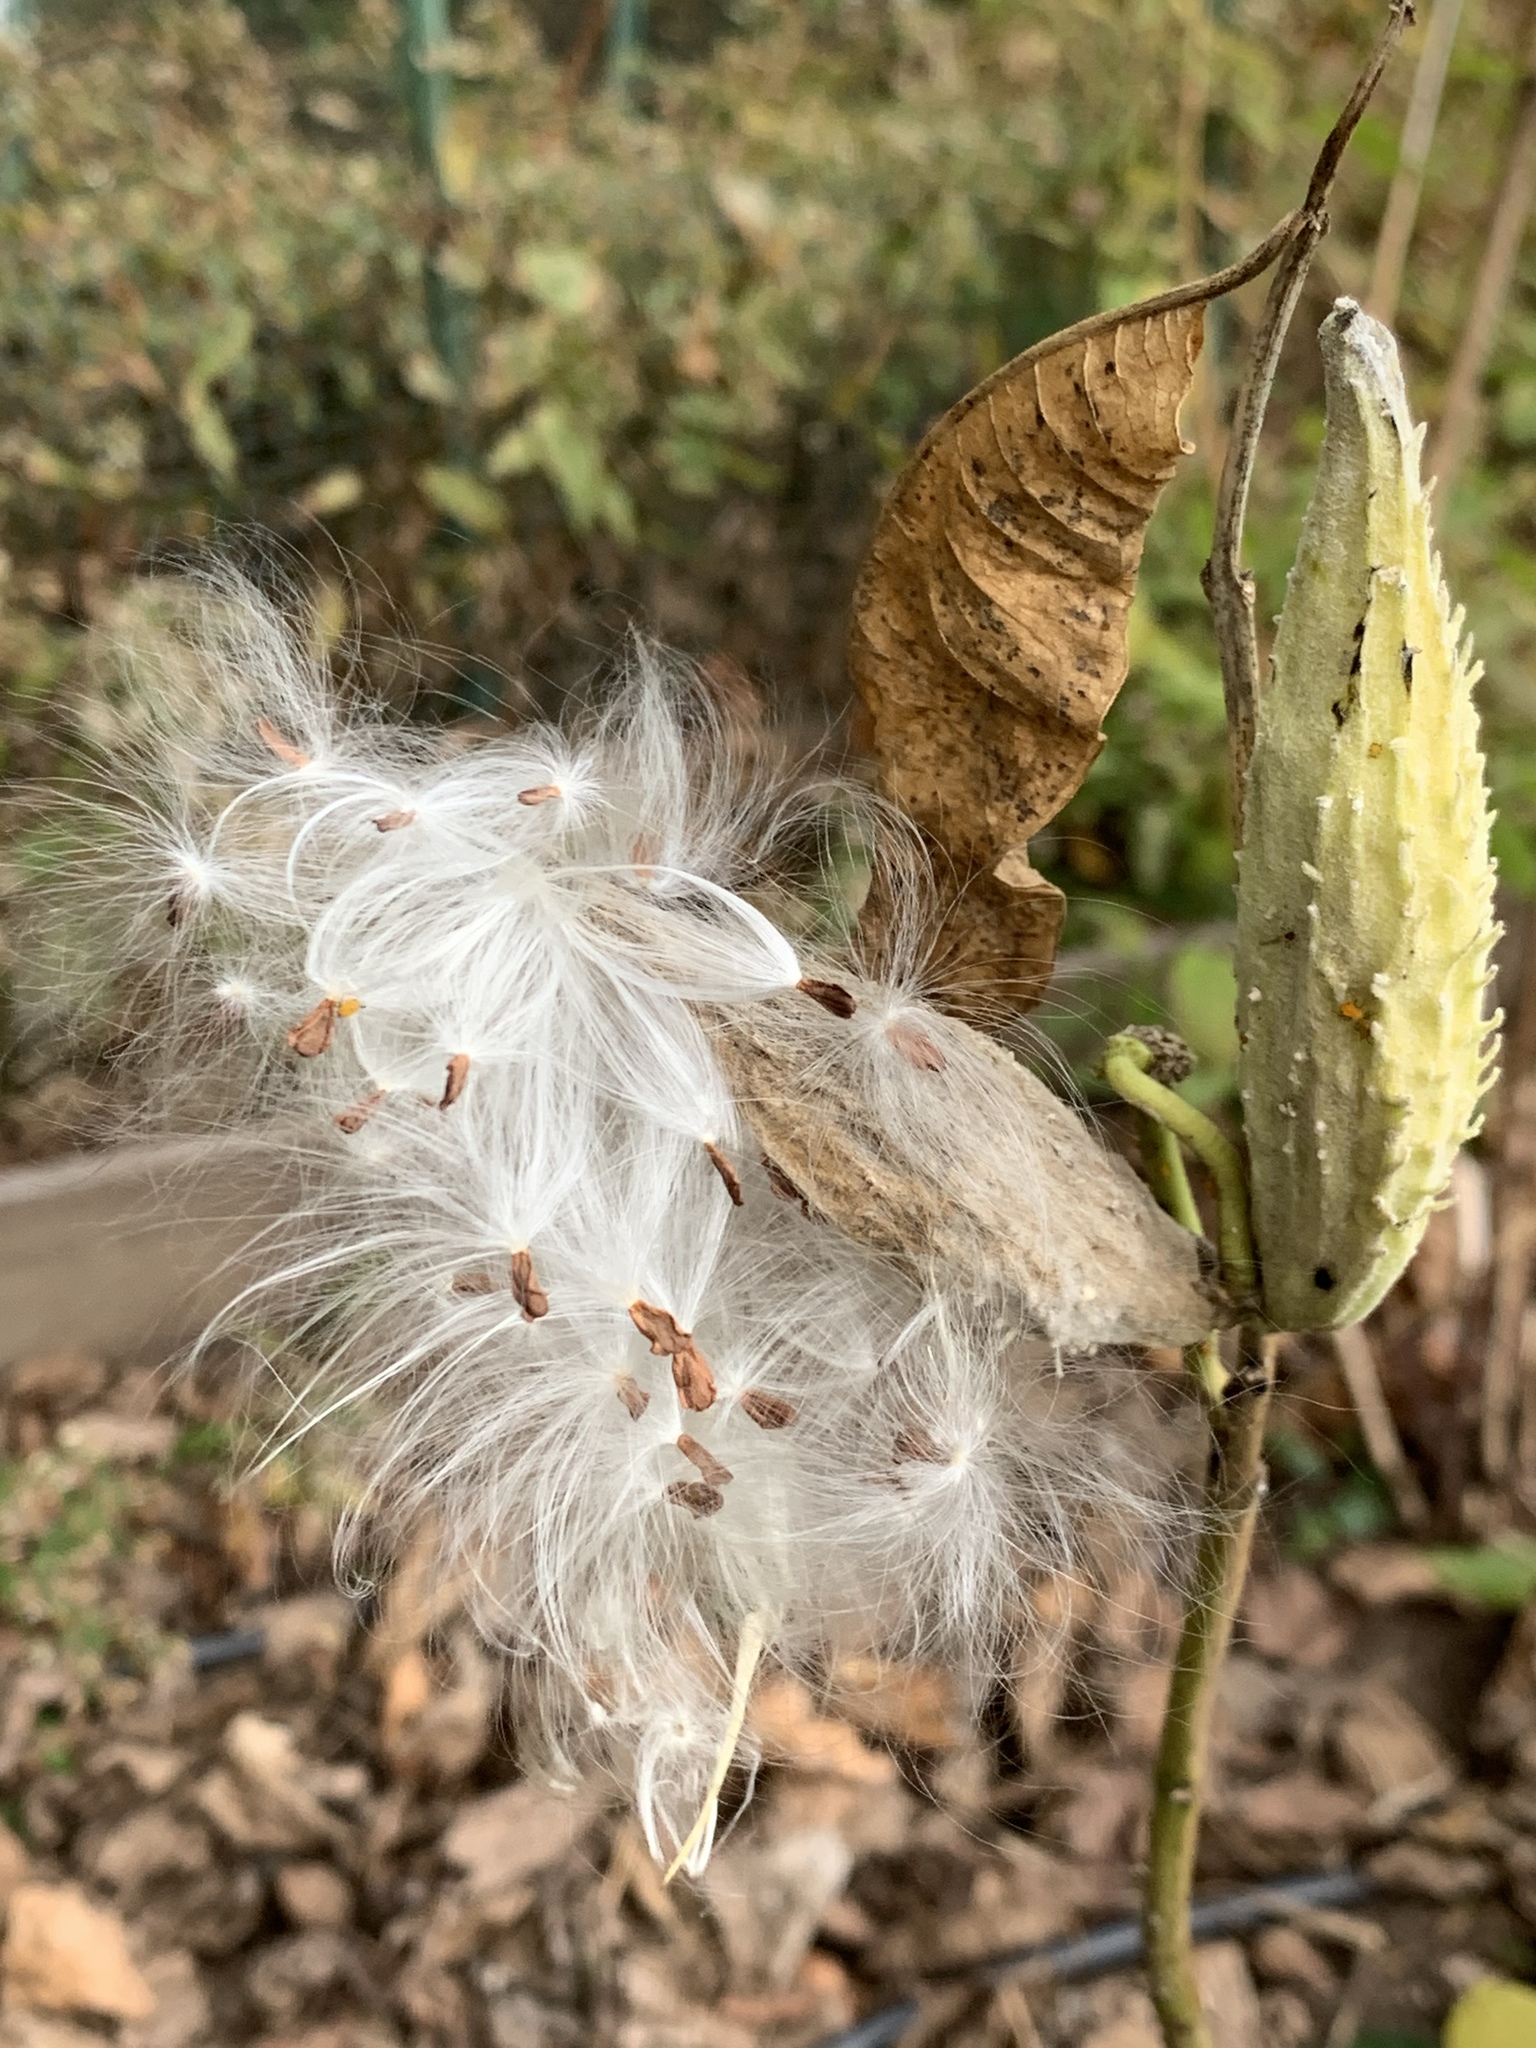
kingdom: Plantae
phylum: Tracheophyta
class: Magnoliopsida
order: Gentianales
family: Apocynaceae
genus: Asclepias
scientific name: Asclepias syriaca
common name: Common milkweed
